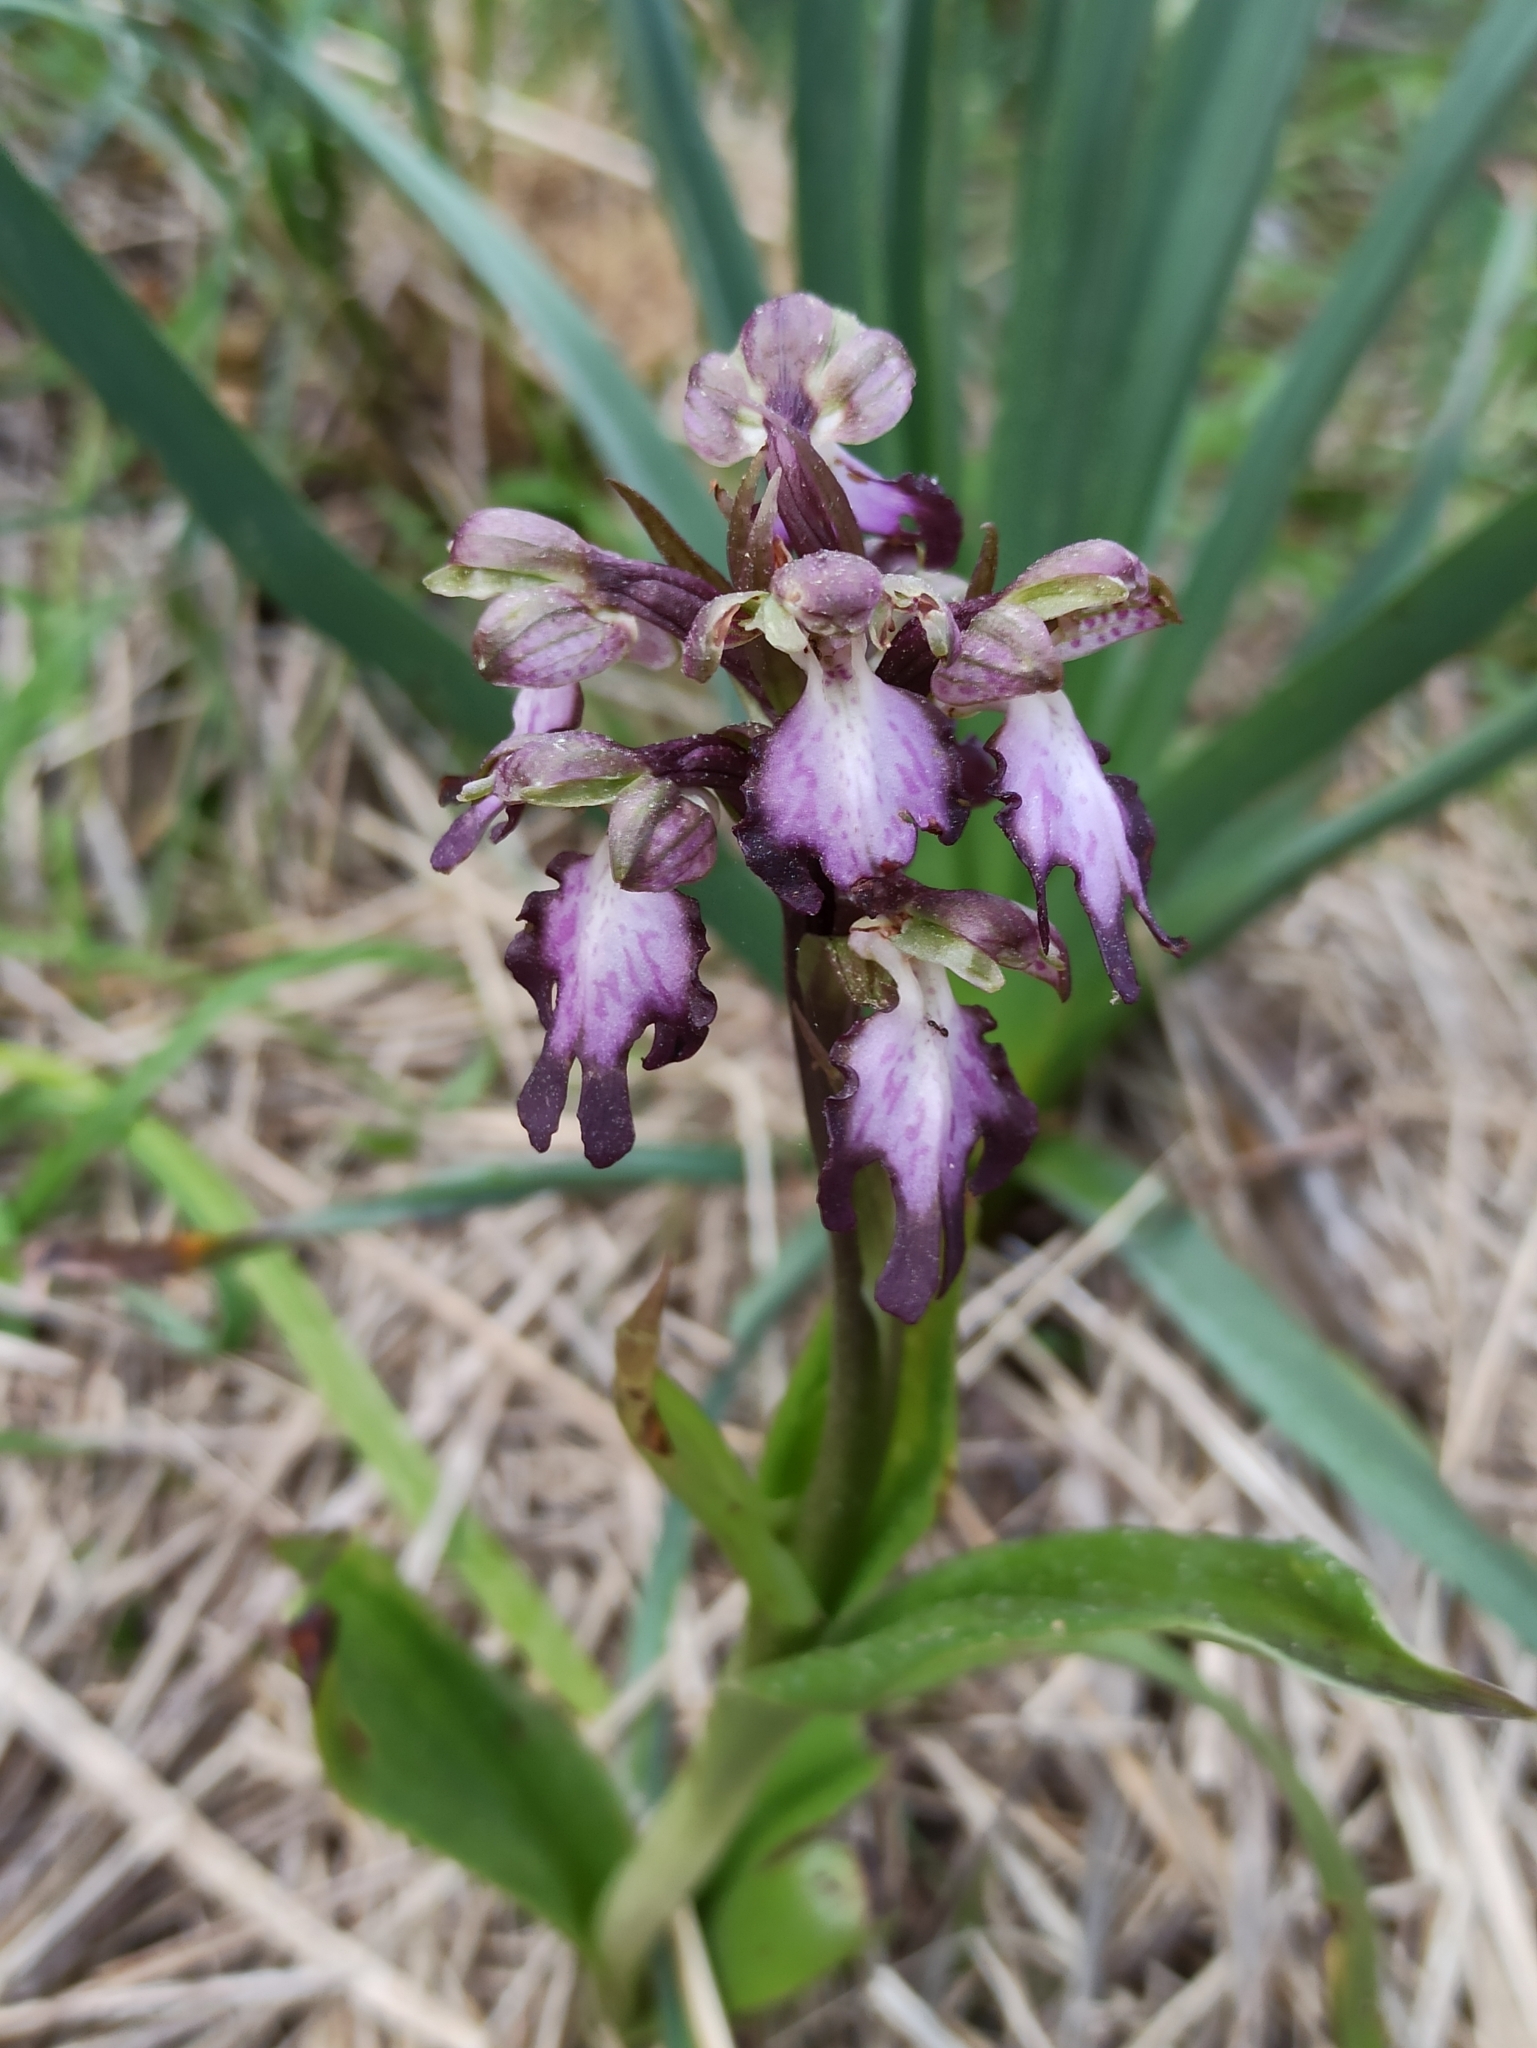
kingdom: Plantae
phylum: Tracheophyta
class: Liliopsida
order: Asparagales
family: Orchidaceae
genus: Himantoglossum
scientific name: Himantoglossum robertianum
